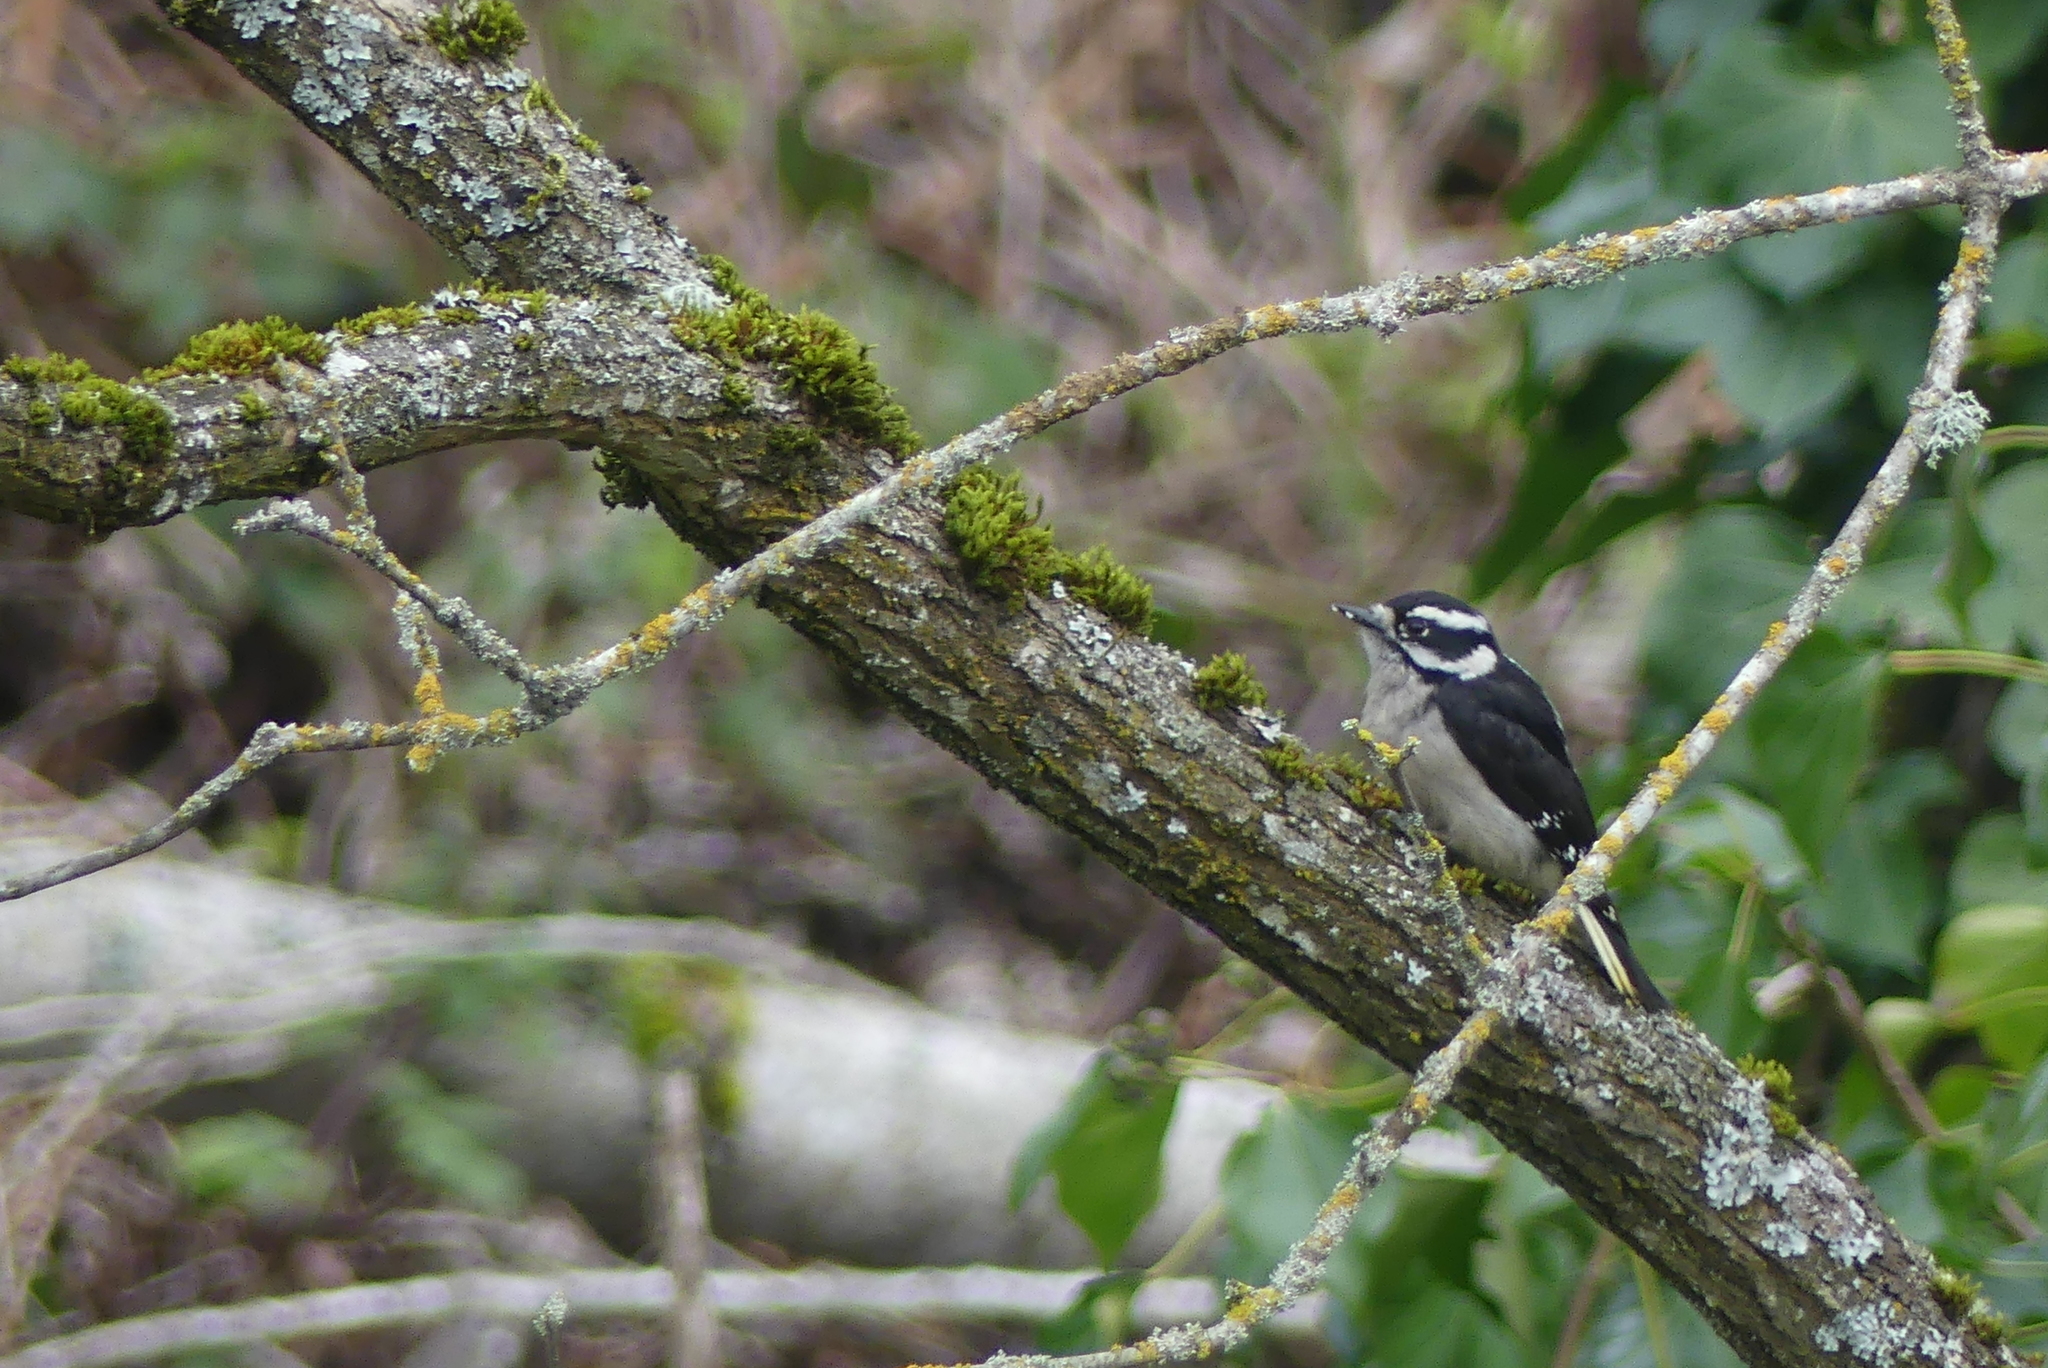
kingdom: Animalia
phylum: Chordata
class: Aves
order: Piciformes
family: Picidae
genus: Dryobates
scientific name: Dryobates pubescens
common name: Downy woodpecker
